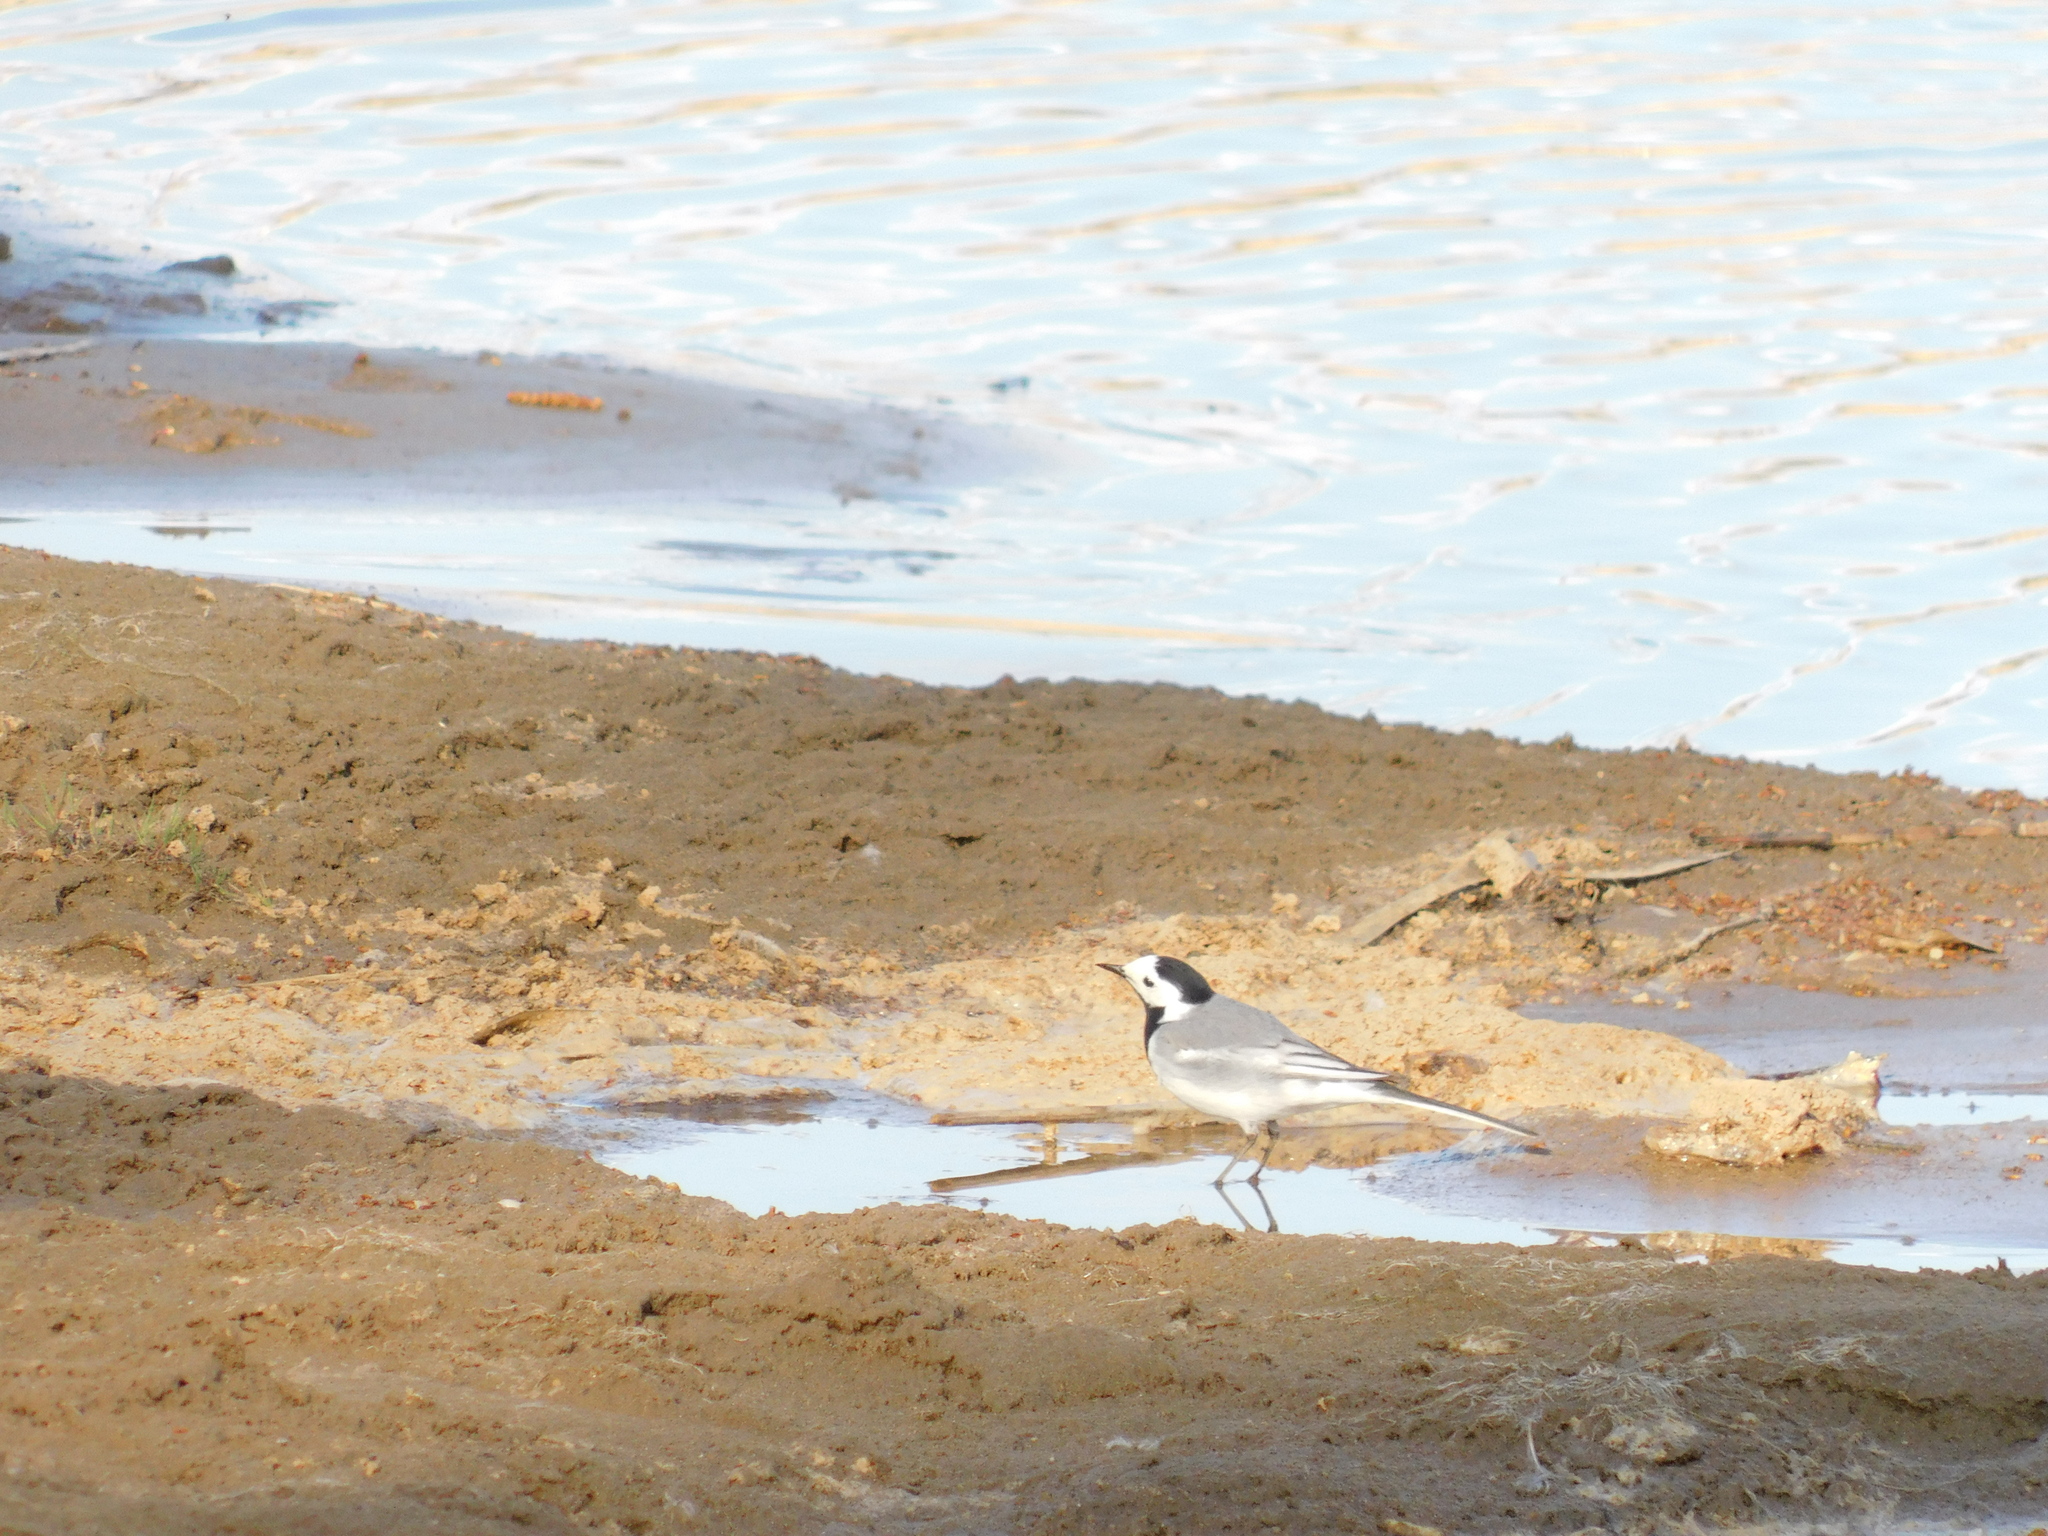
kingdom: Animalia
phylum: Chordata
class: Aves
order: Passeriformes
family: Motacillidae
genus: Motacilla
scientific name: Motacilla alba
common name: White wagtail
